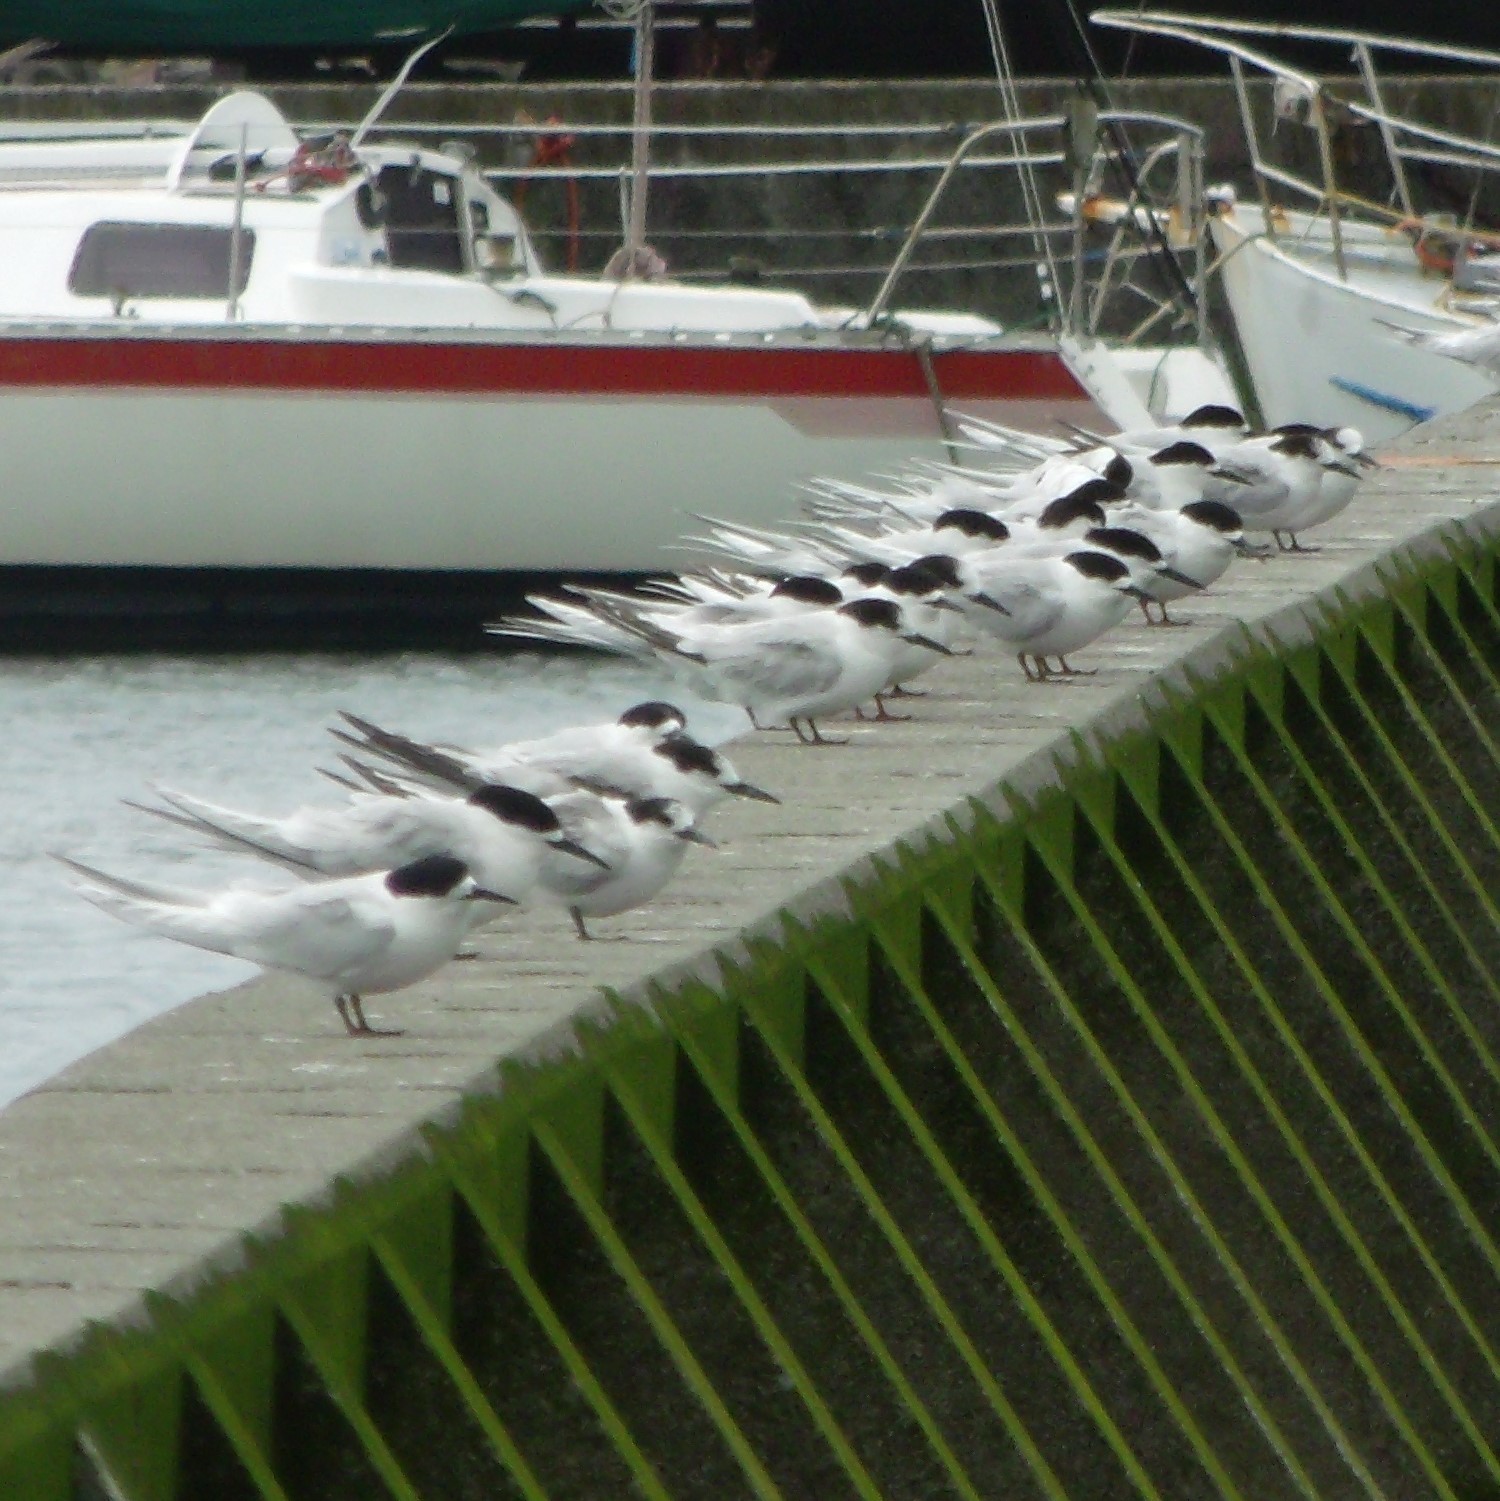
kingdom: Animalia
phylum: Chordata
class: Aves
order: Charadriiformes
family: Laridae
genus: Sterna
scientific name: Sterna striata
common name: White-fronted tern
